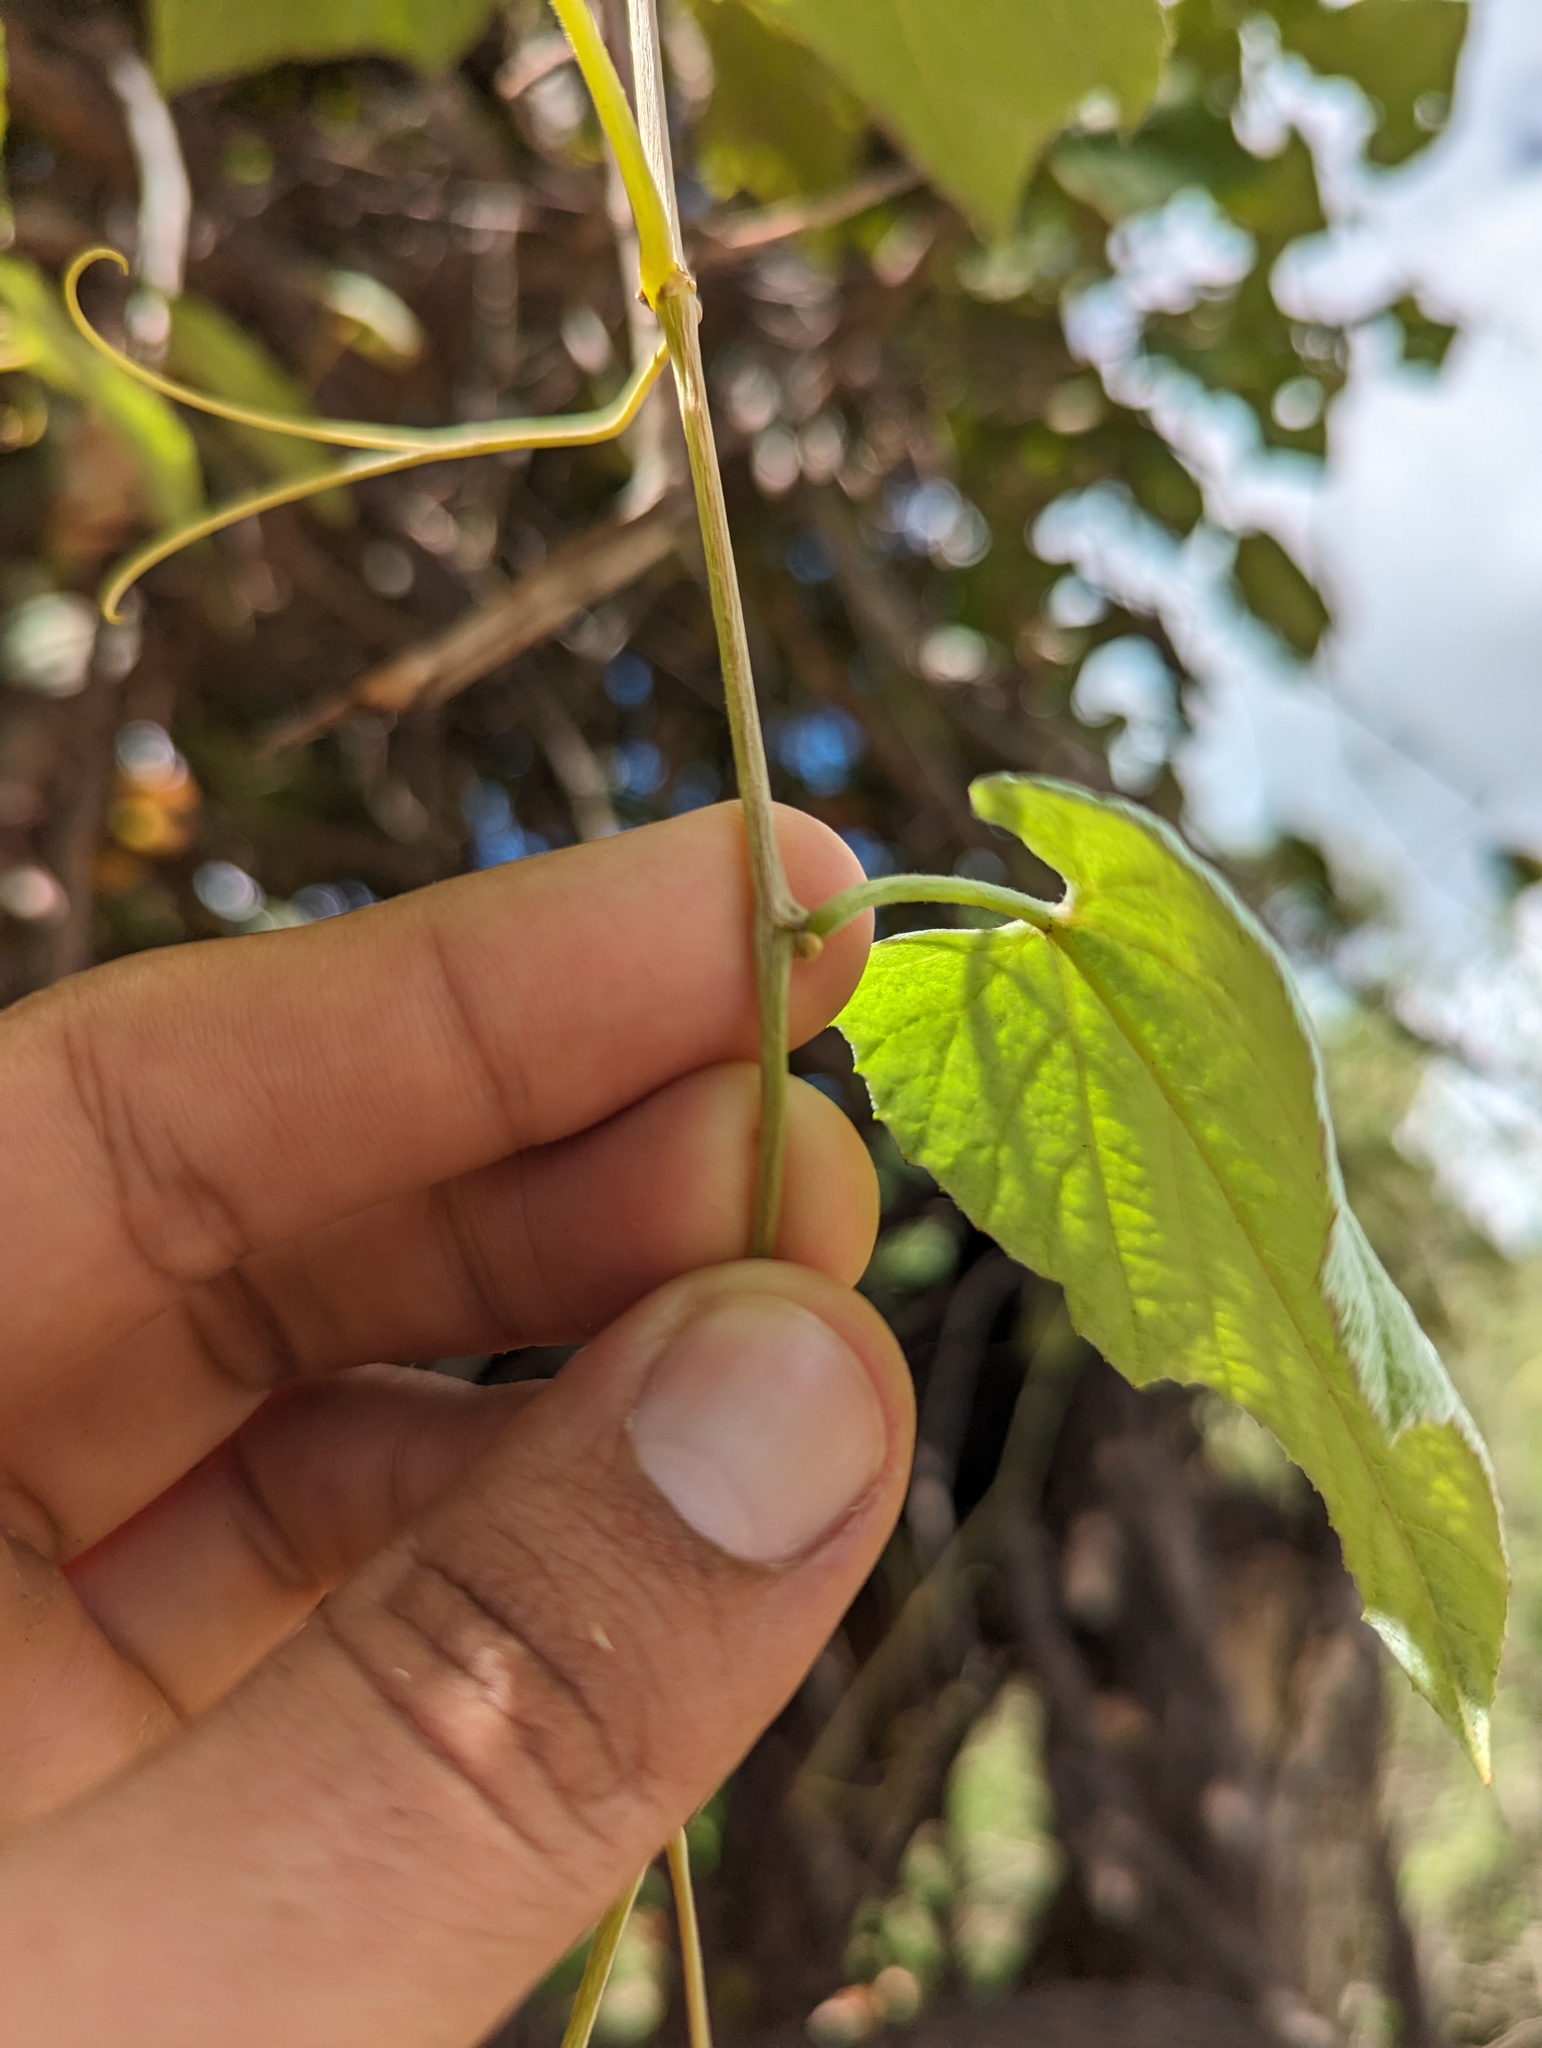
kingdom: Plantae
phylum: Tracheophyta
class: Magnoliopsida
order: Vitales
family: Vitaceae
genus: Vitis
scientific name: Vitis peninsularis
